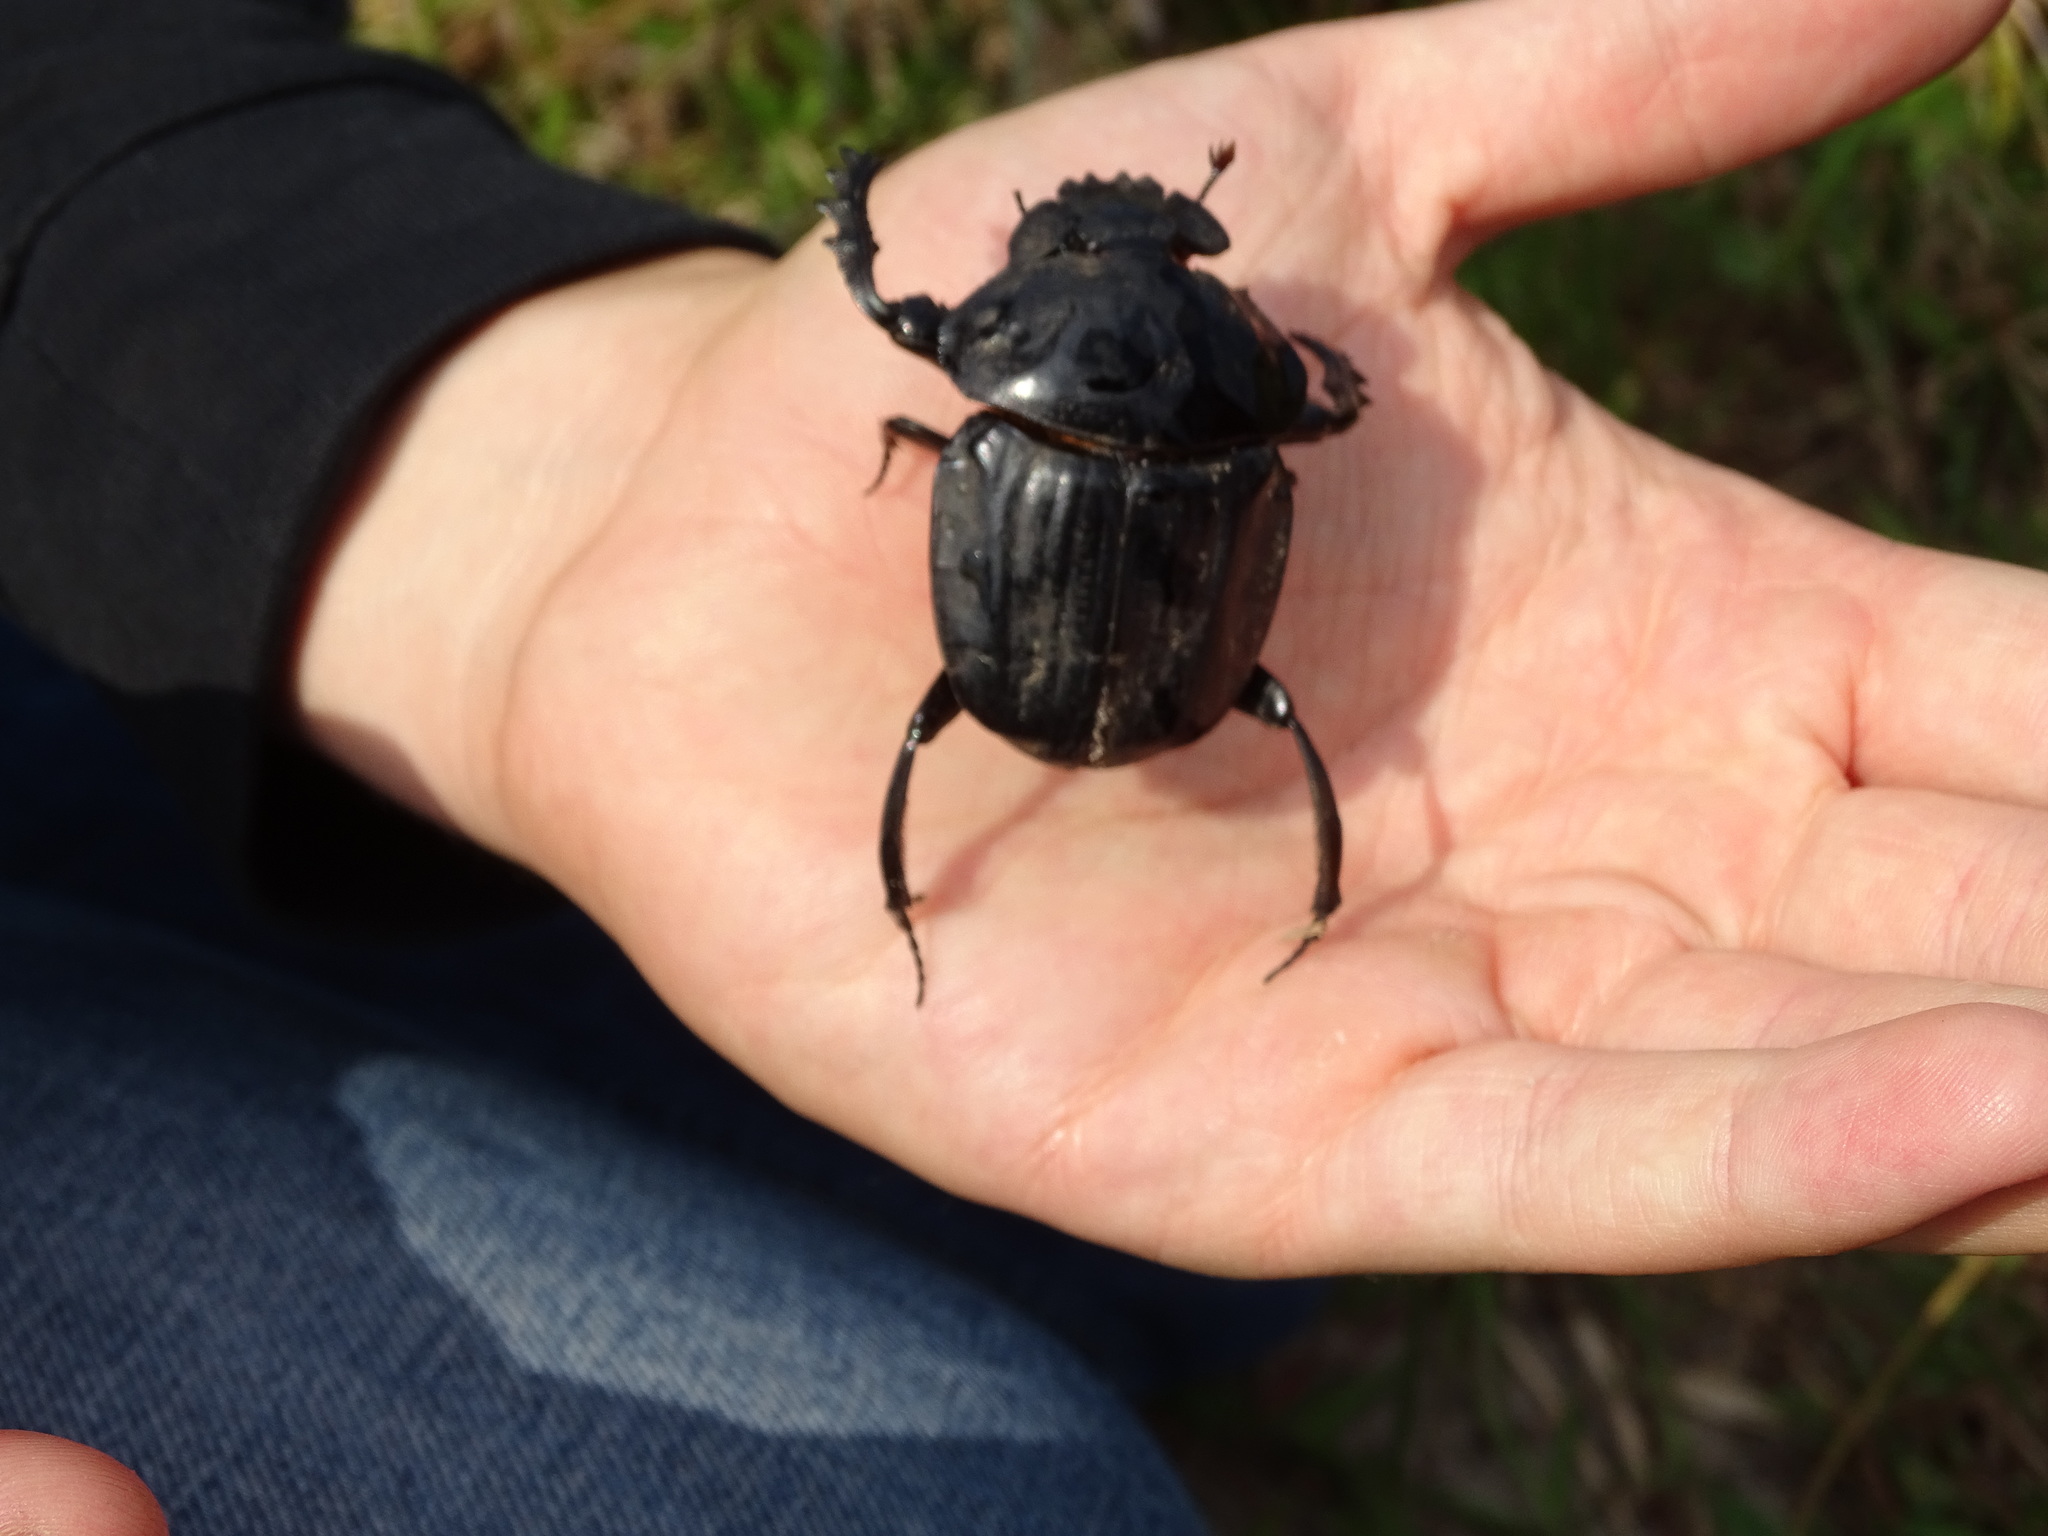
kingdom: Animalia
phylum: Arthropoda
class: Insecta
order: Coleoptera
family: Scarabaeidae
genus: Pachylomera
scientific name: Pachylomera femoralis
